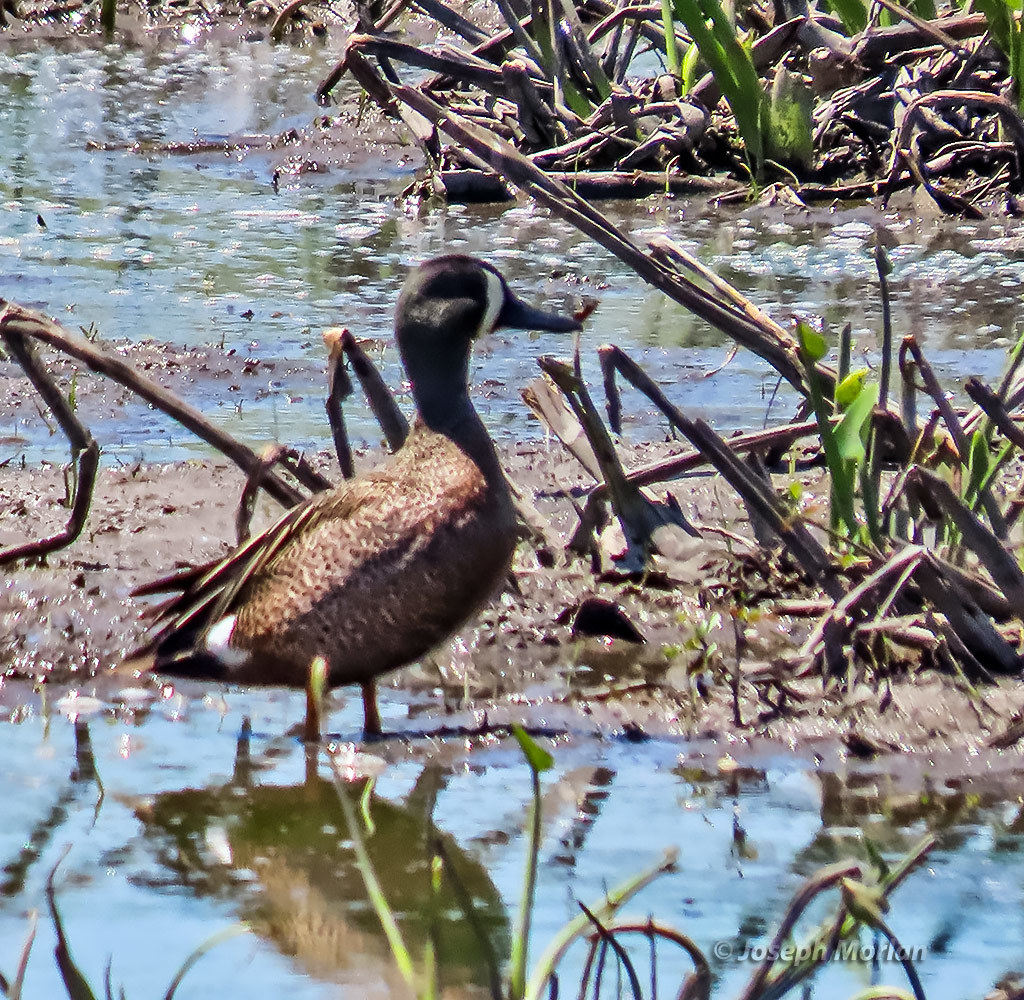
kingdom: Animalia
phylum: Chordata
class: Aves
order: Anseriformes
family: Anatidae
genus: Spatula
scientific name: Spatula discors
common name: Blue-winged teal
